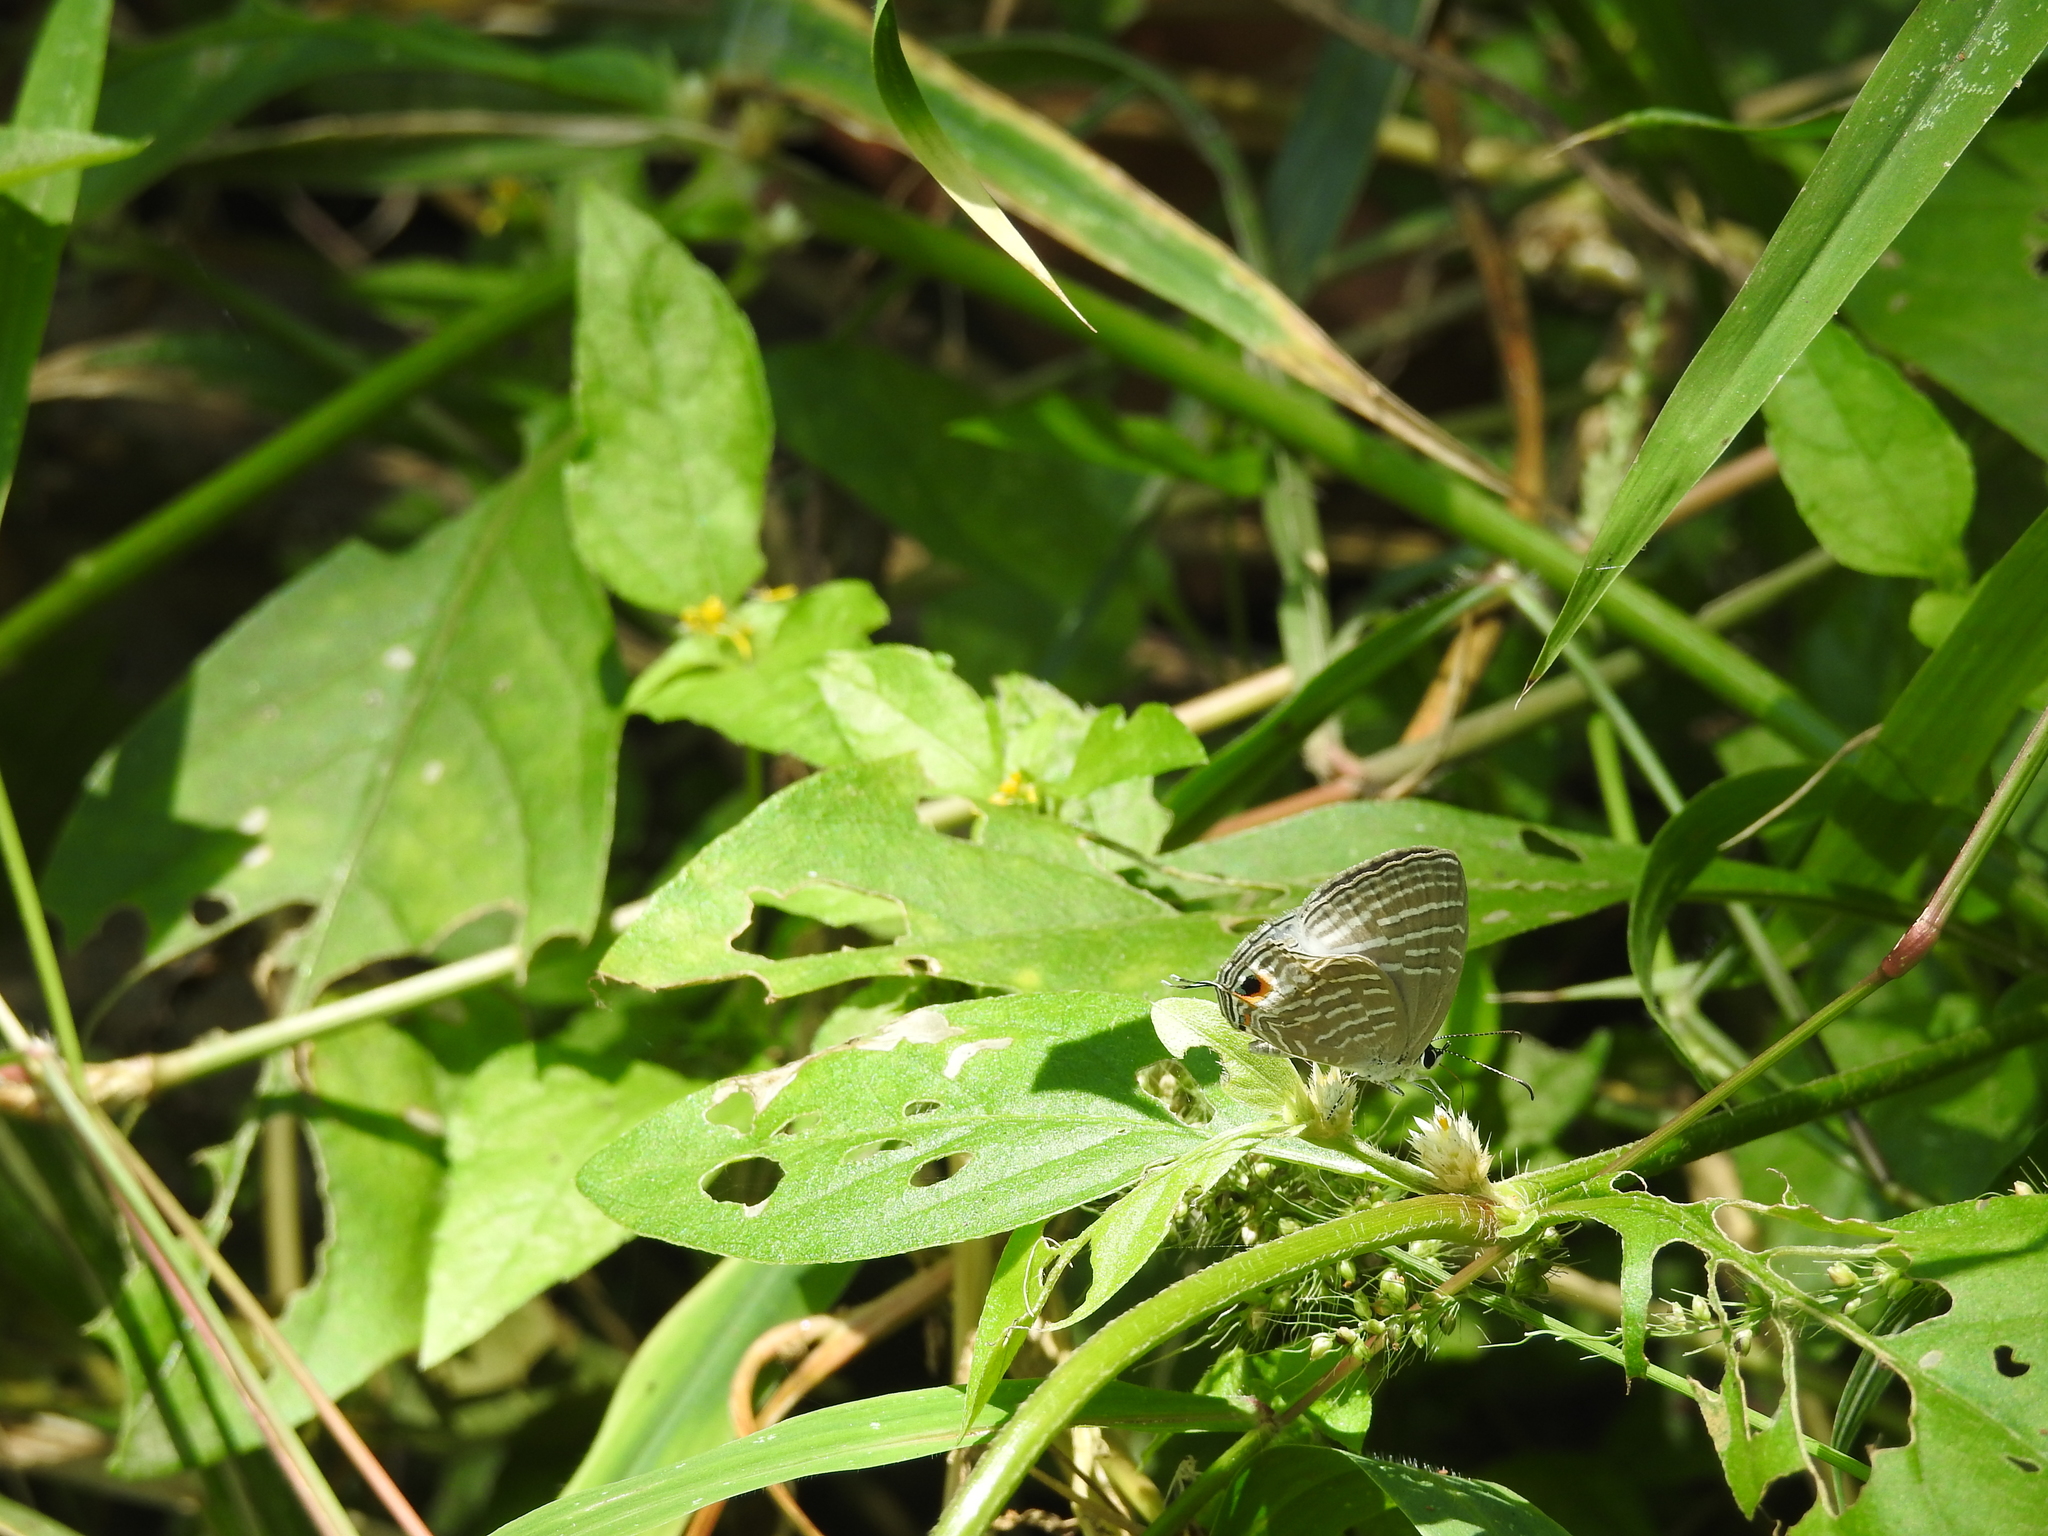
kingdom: Animalia
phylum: Arthropoda
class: Insecta
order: Lepidoptera
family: Lycaenidae
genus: Jamides
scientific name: Jamides celeno
